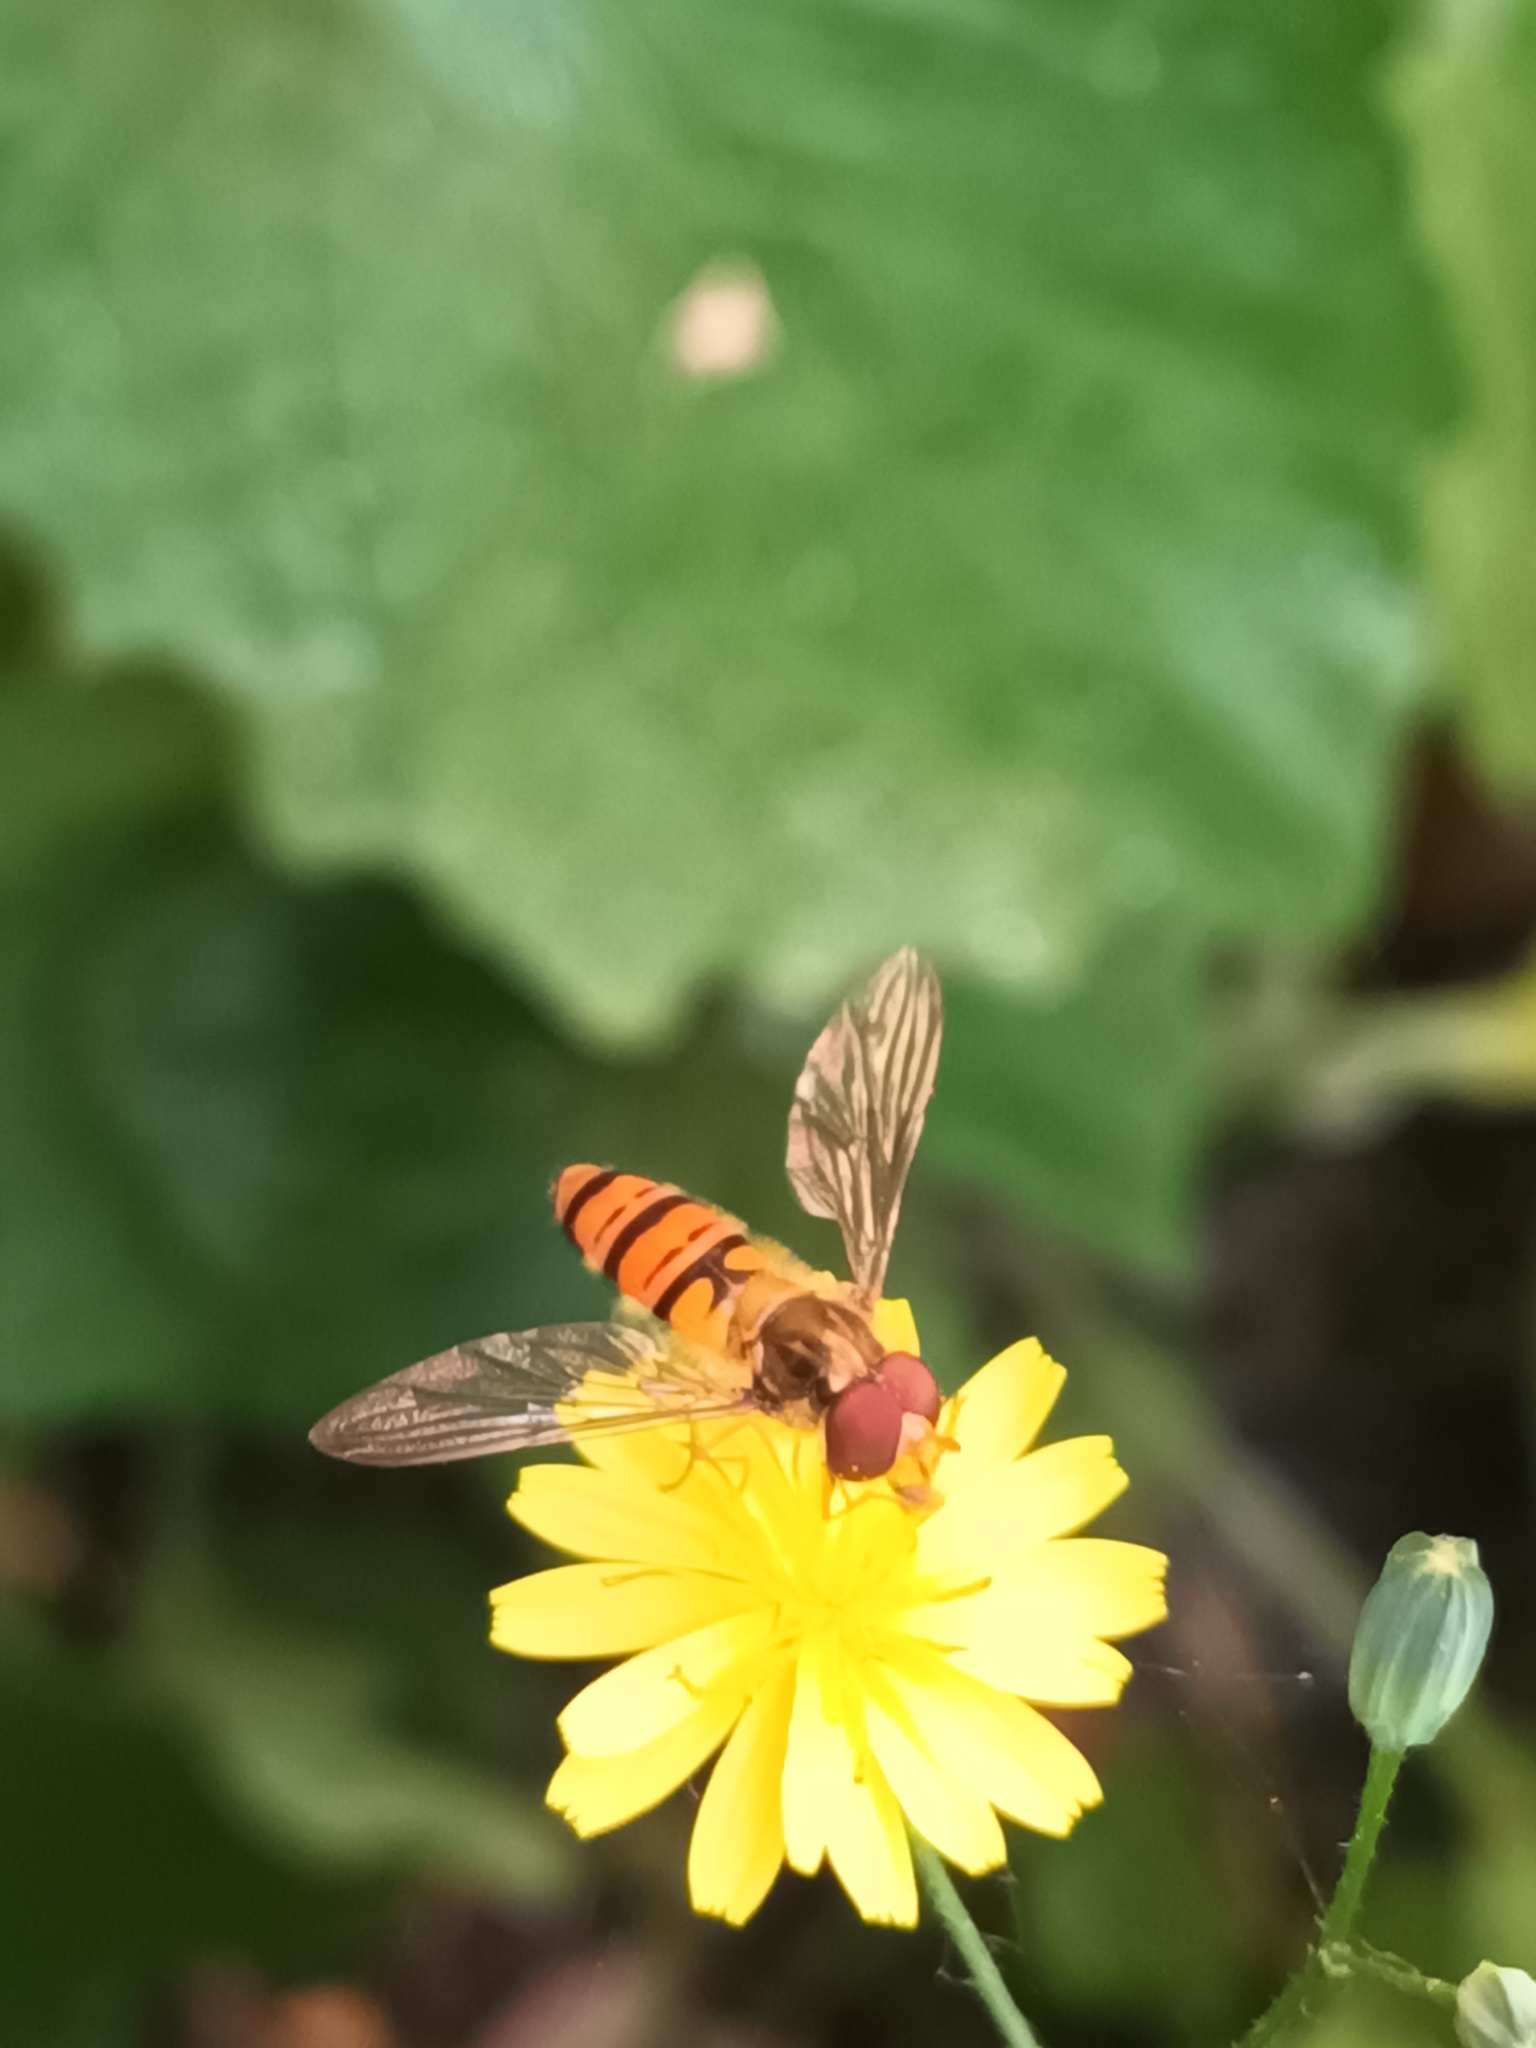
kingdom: Animalia
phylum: Arthropoda
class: Insecta
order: Diptera
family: Syrphidae
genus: Episyrphus
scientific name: Episyrphus balteatus
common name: Marmalade hoverfly
